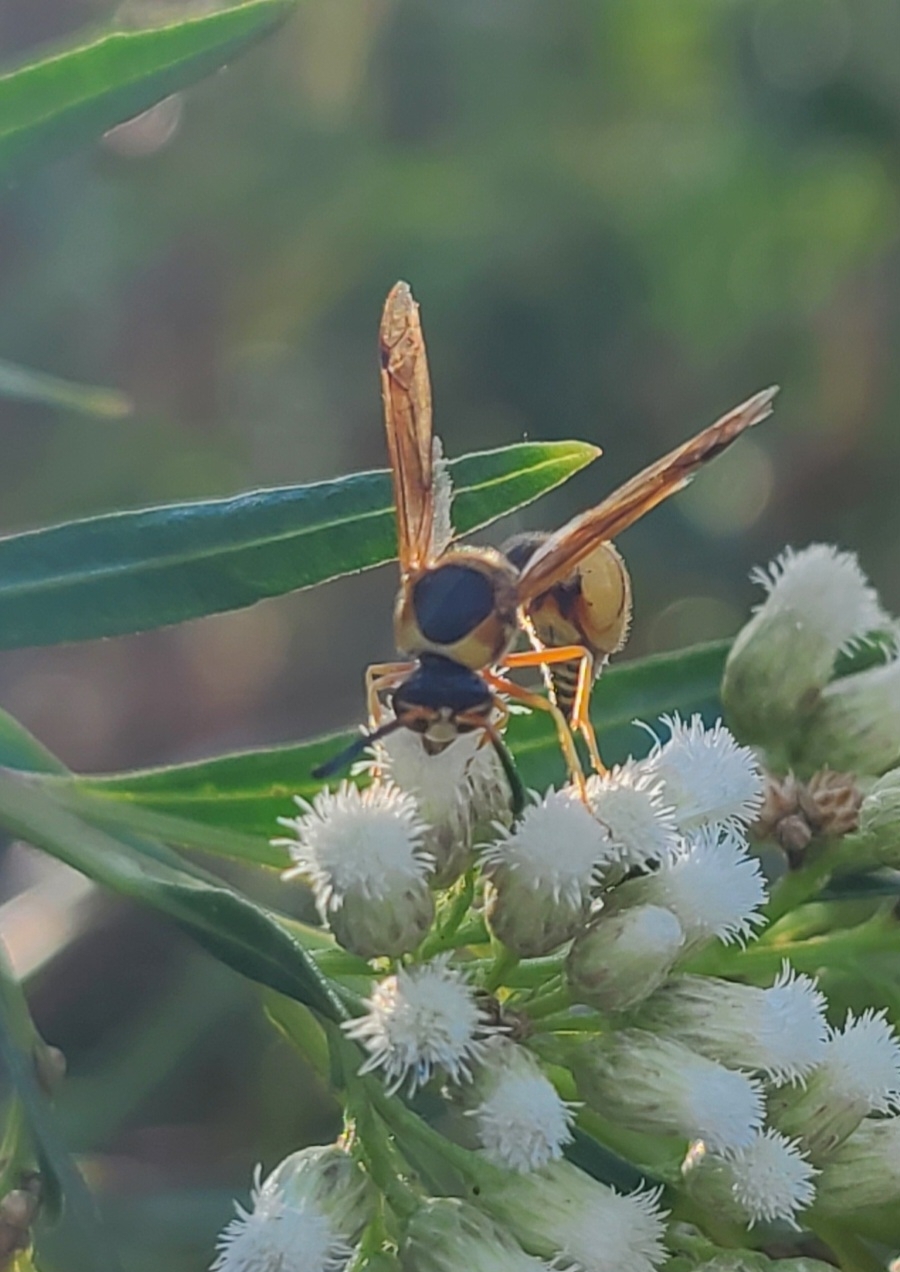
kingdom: Animalia
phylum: Arthropoda
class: Insecta
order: Hymenoptera
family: Vespidae
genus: Eumenes
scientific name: Eumenes bollii
